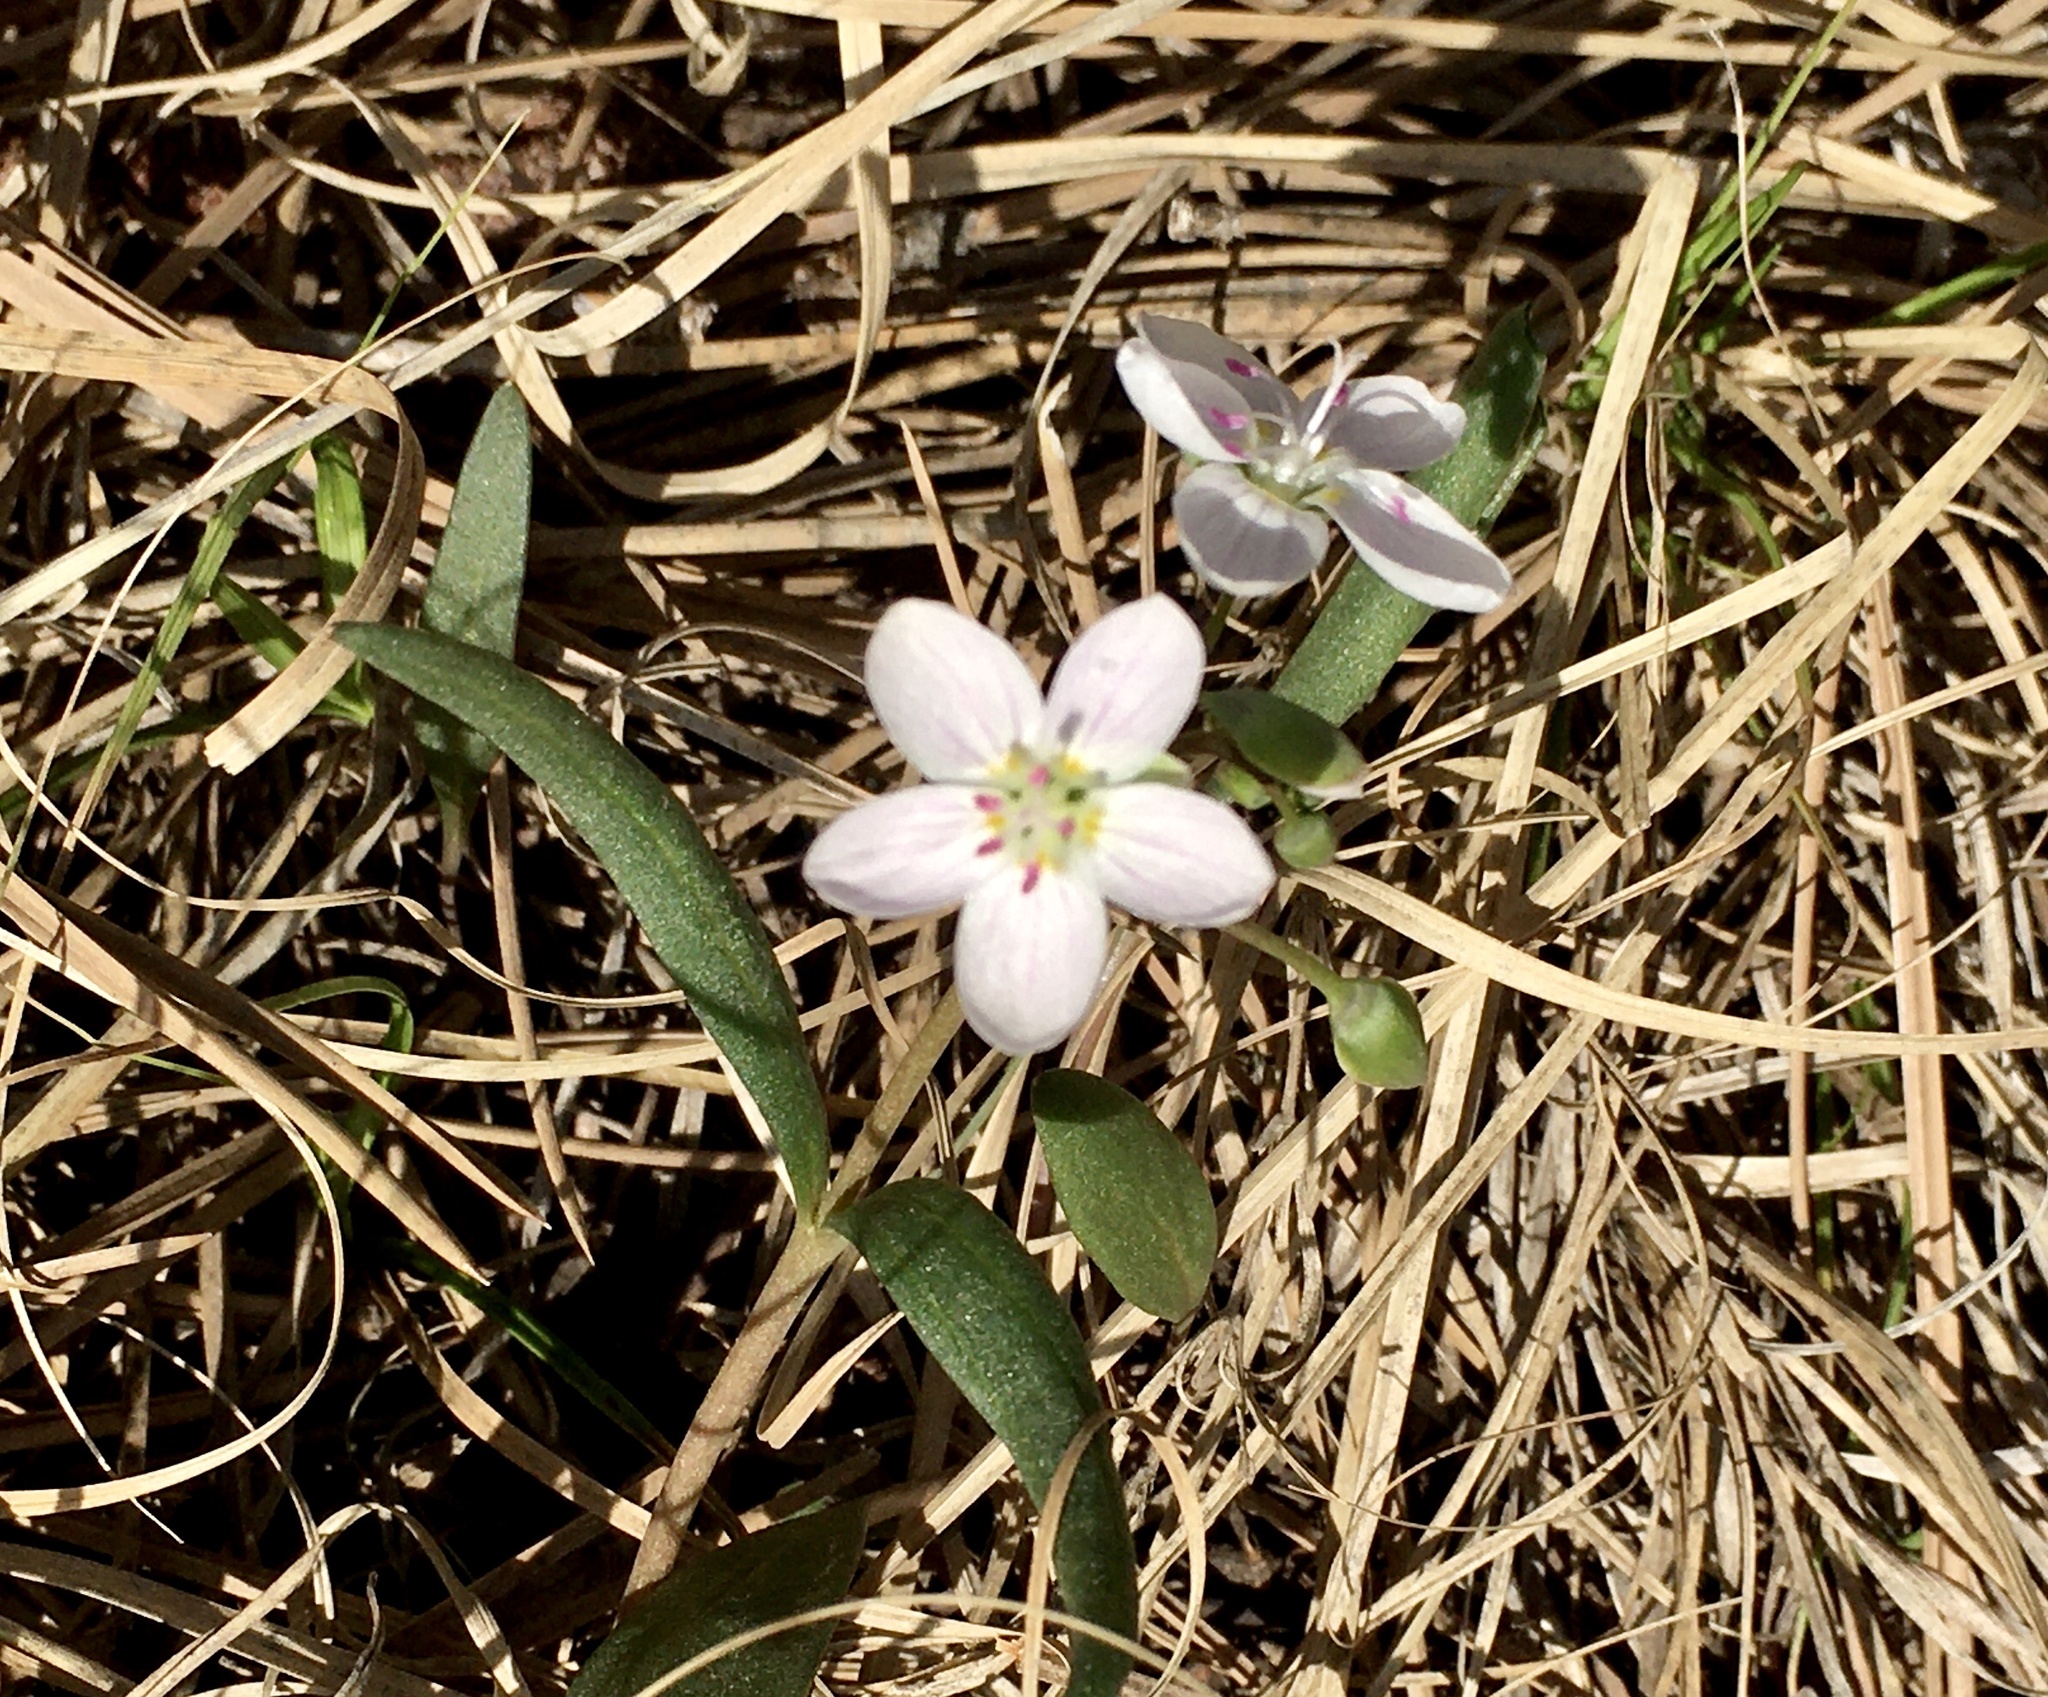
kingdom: Plantae
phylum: Tracheophyta
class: Magnoliopsida
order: Caryophyllales
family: Montiaceae
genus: Claytonia
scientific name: Claytonia rosea
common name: Rocky mountain spring-beauty
